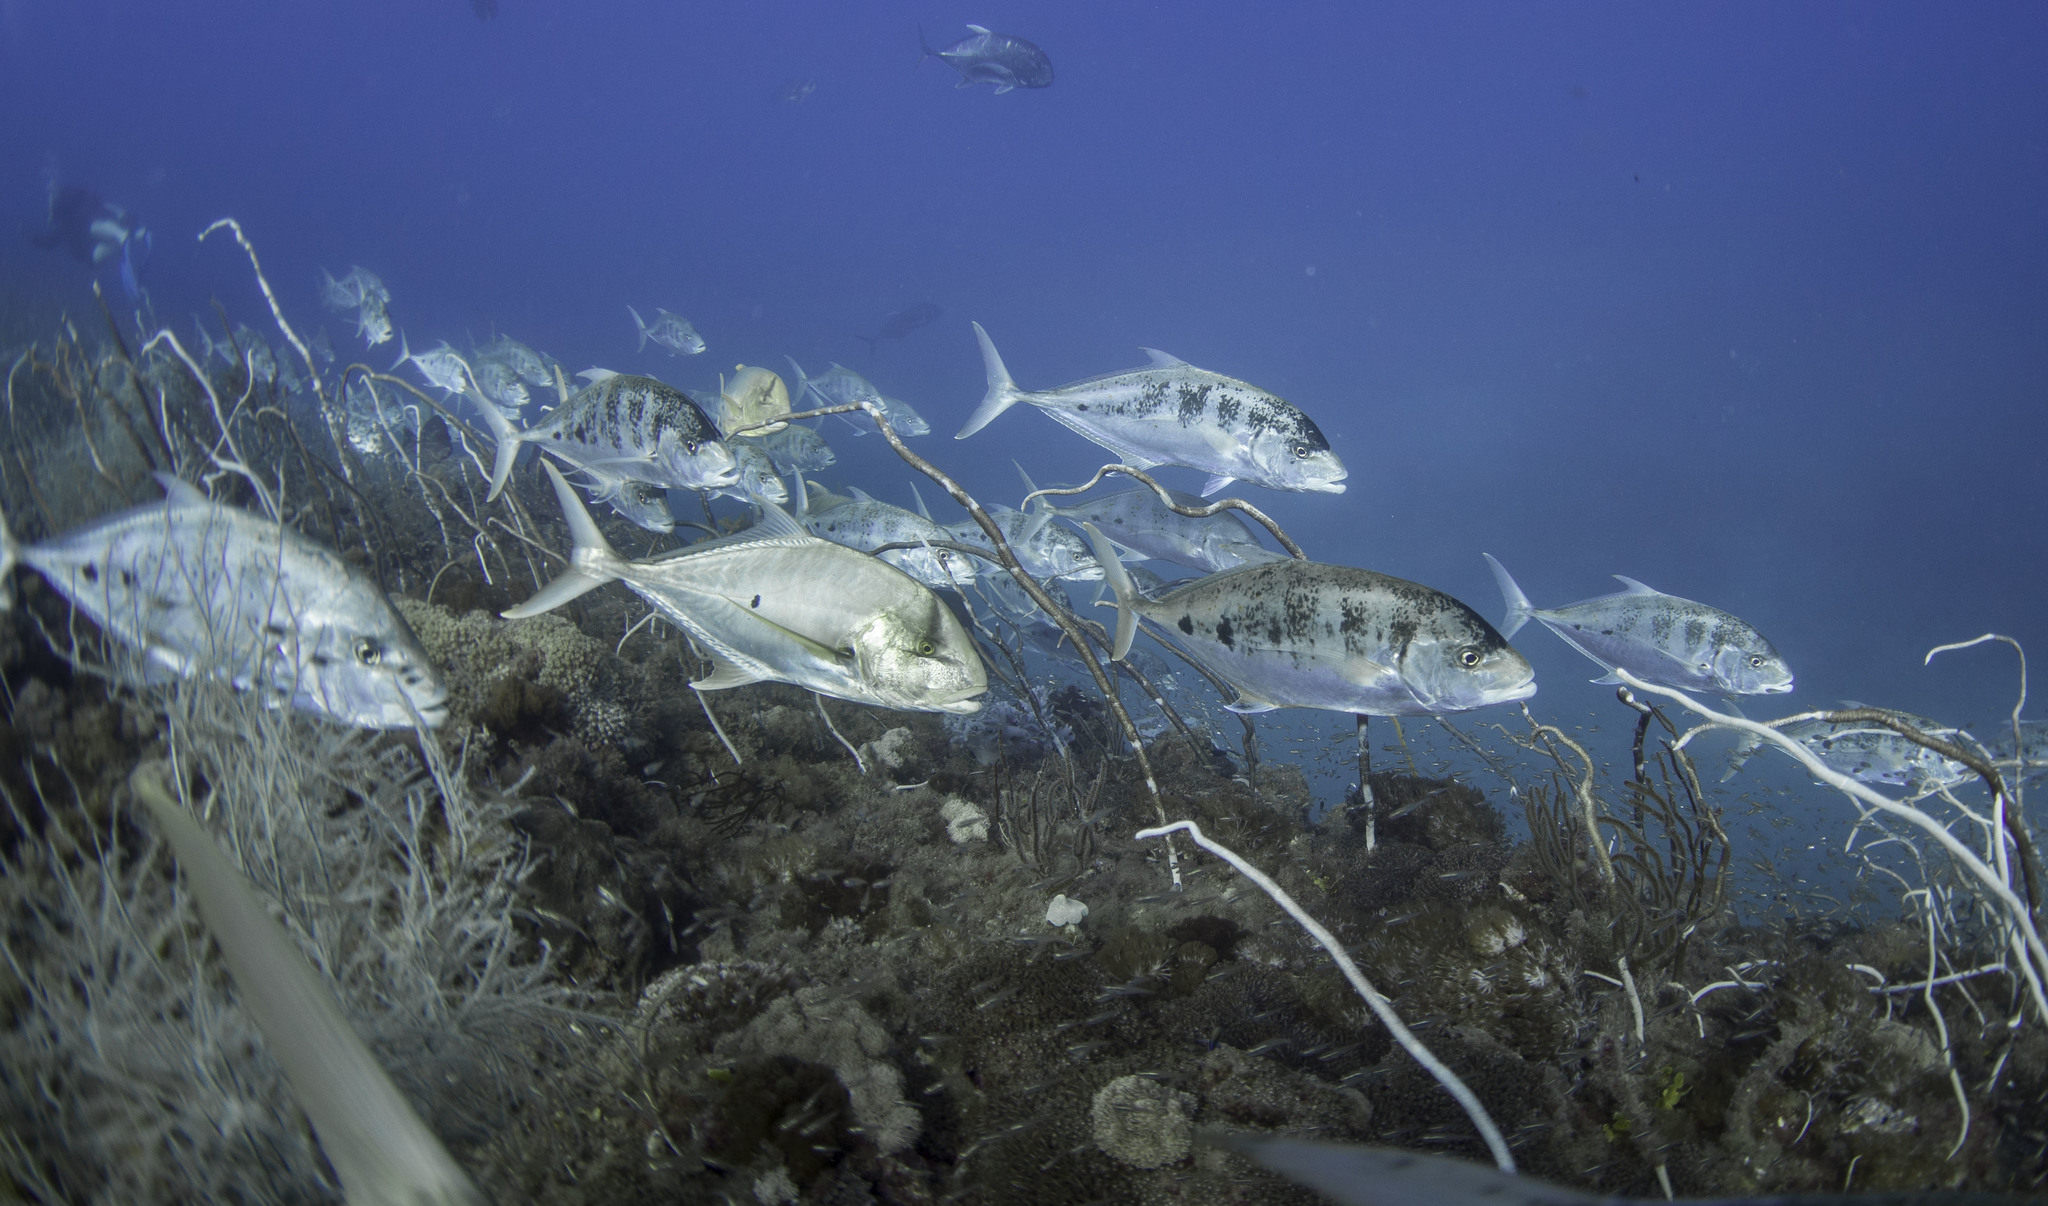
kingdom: Animalia
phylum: Chordata
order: Perciformes
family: Carangidae
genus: Carangoides
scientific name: Carangoides Turrum fulvoguttatum
